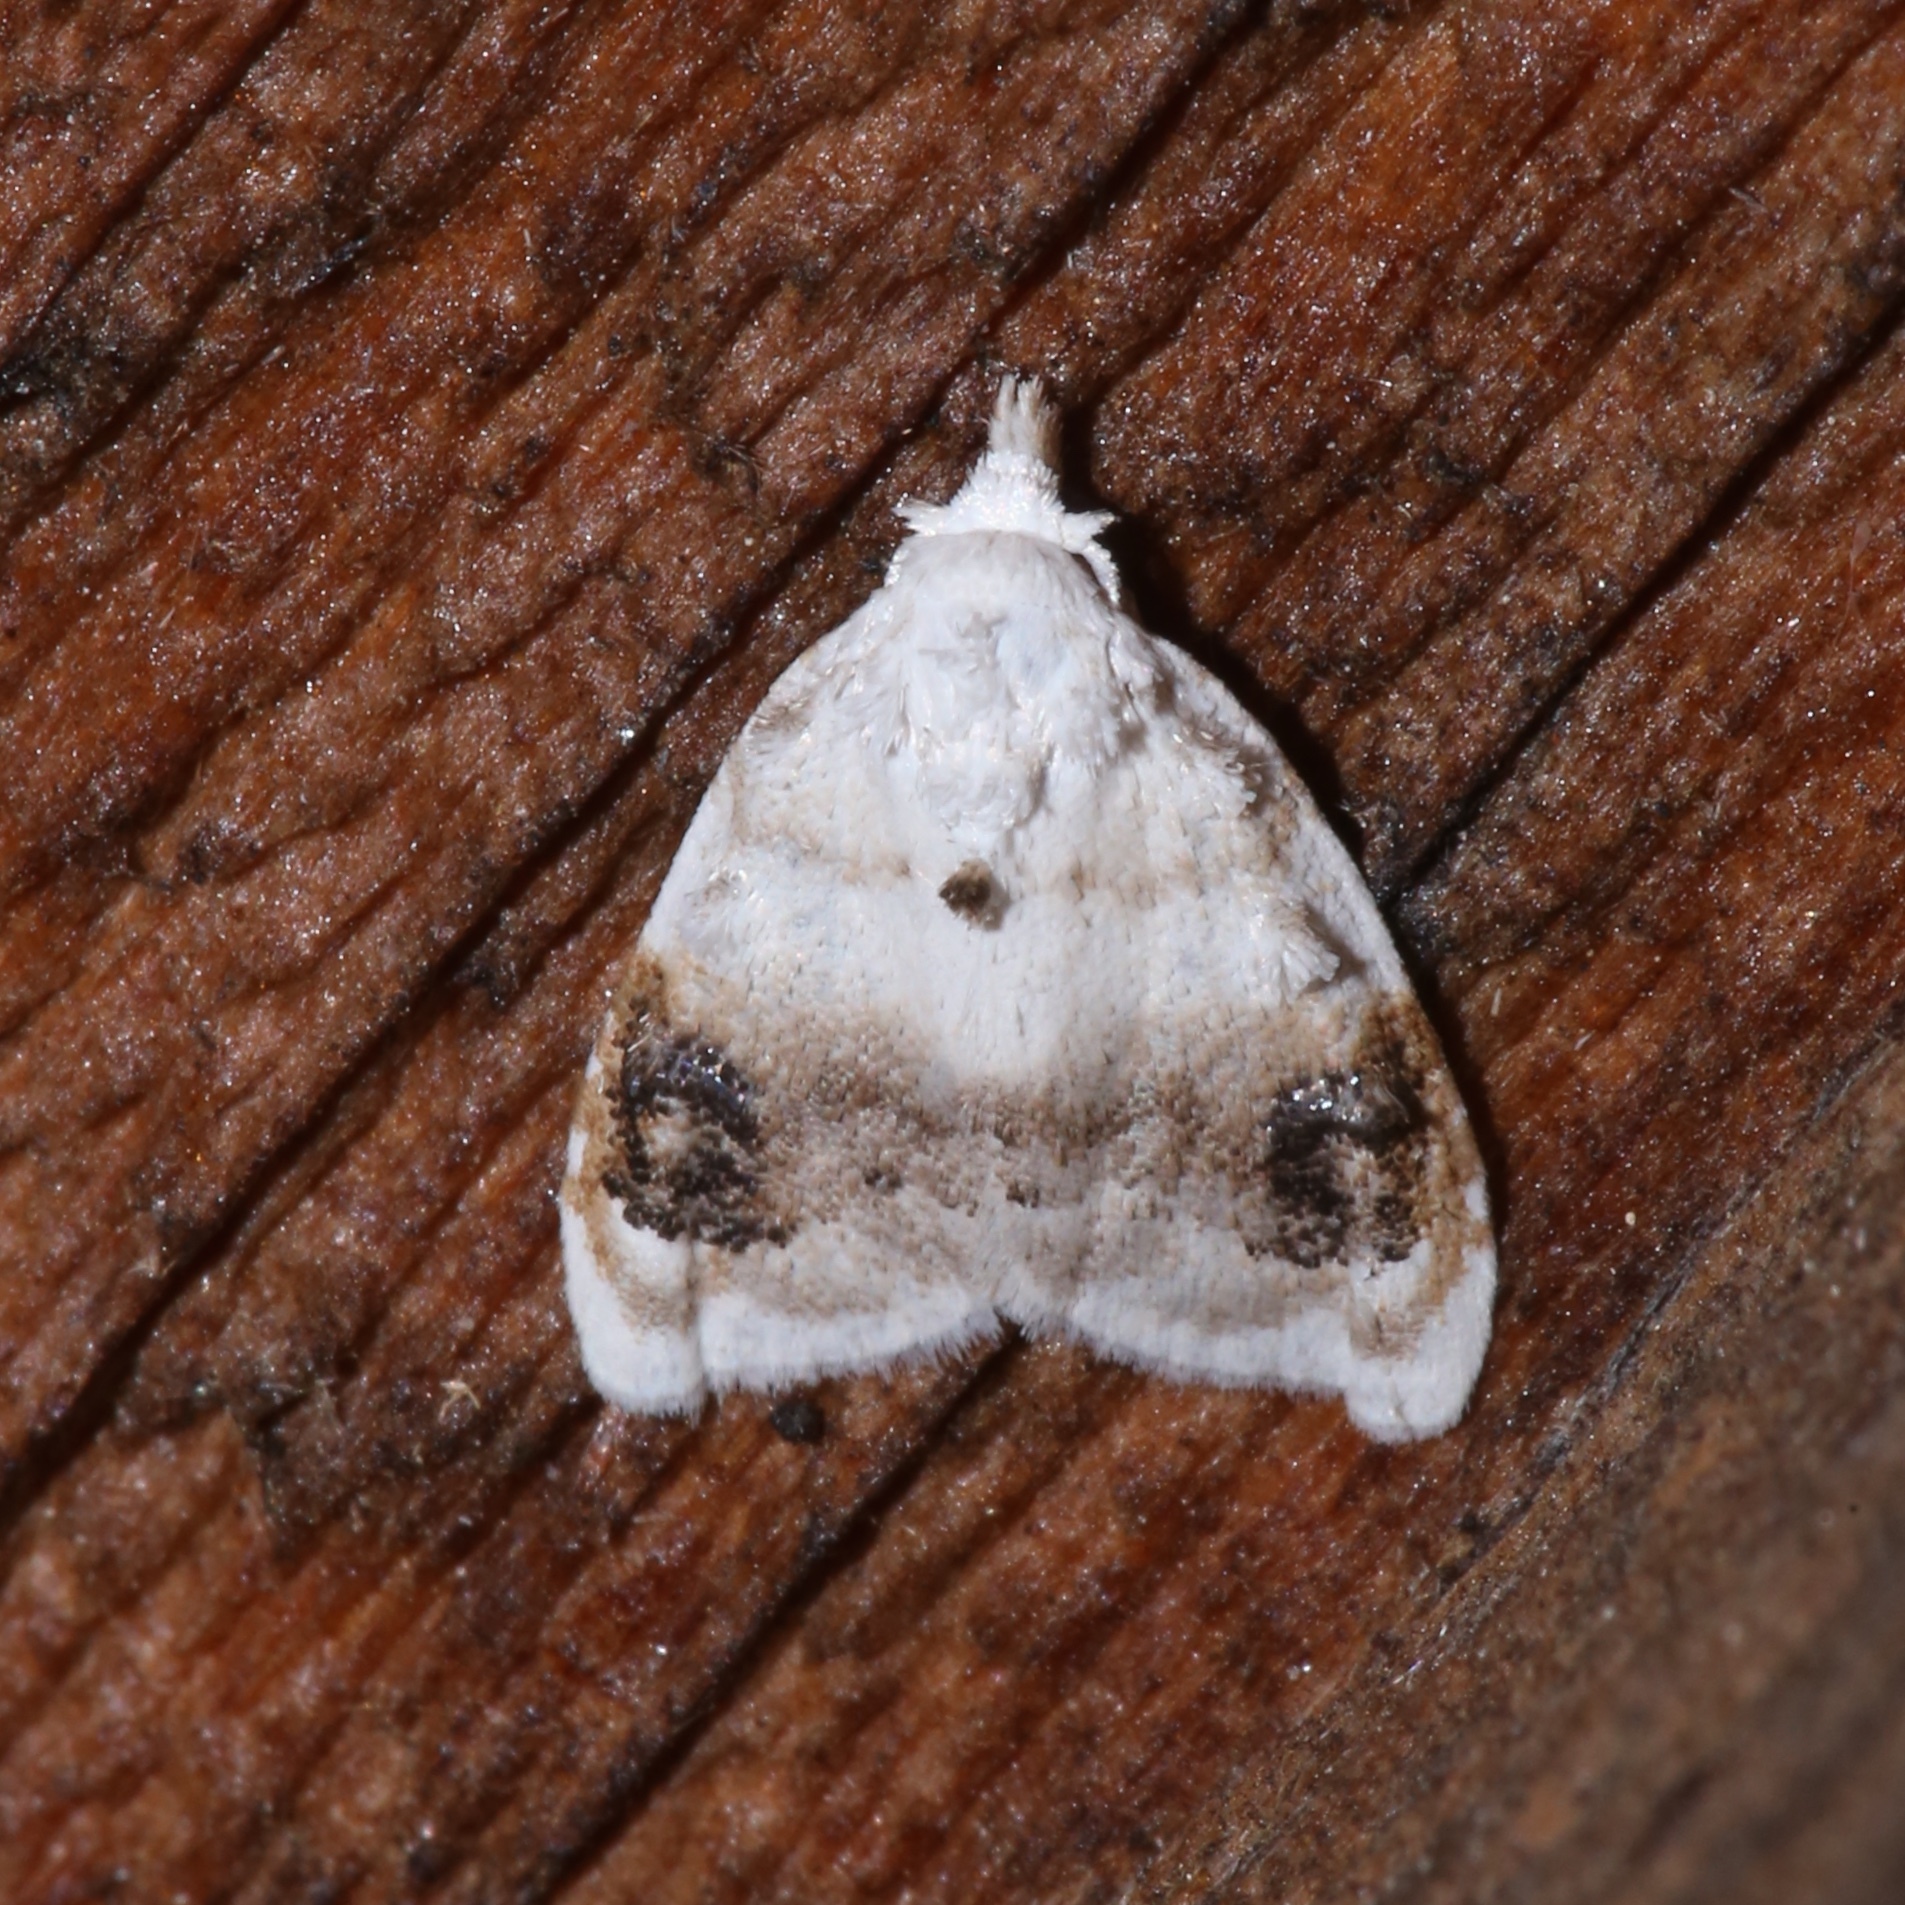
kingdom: Animalia
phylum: Arthropoda
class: Insecta
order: Lepidoptera
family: Nolidae
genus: Nola
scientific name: Nola cilicoides
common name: Blurry-patched nola moth
